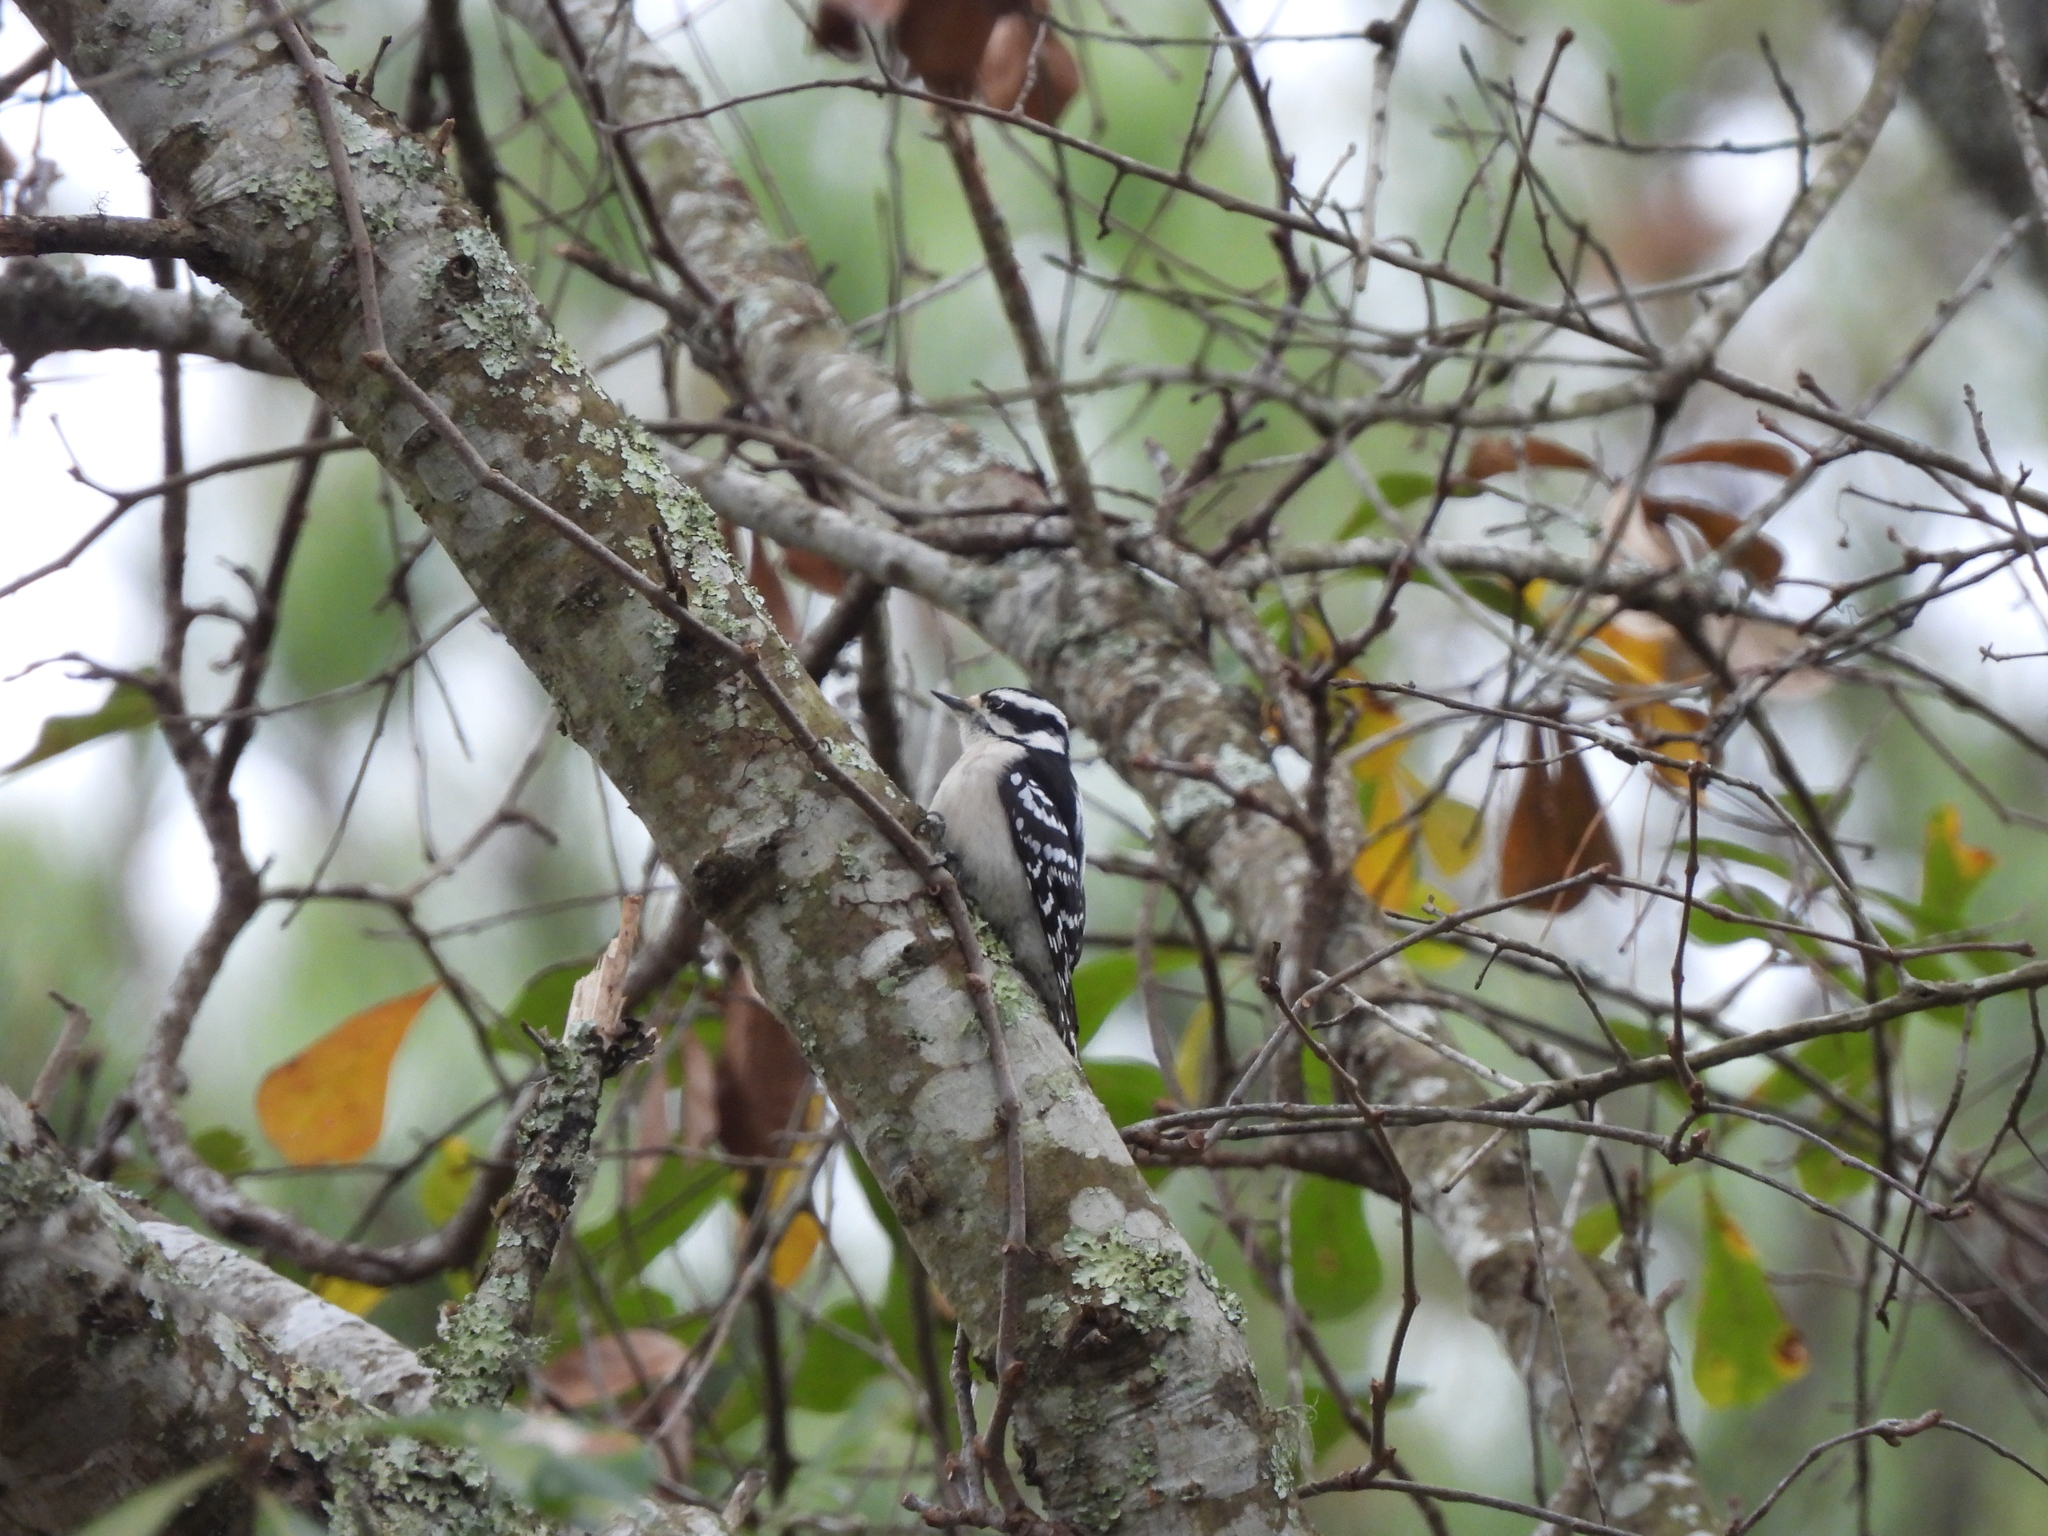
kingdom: Animalia
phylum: Chordata
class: Aves
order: Piciformes
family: Picidae
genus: Dryobates
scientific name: Dryobates pubescens
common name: Downy woodpecker
